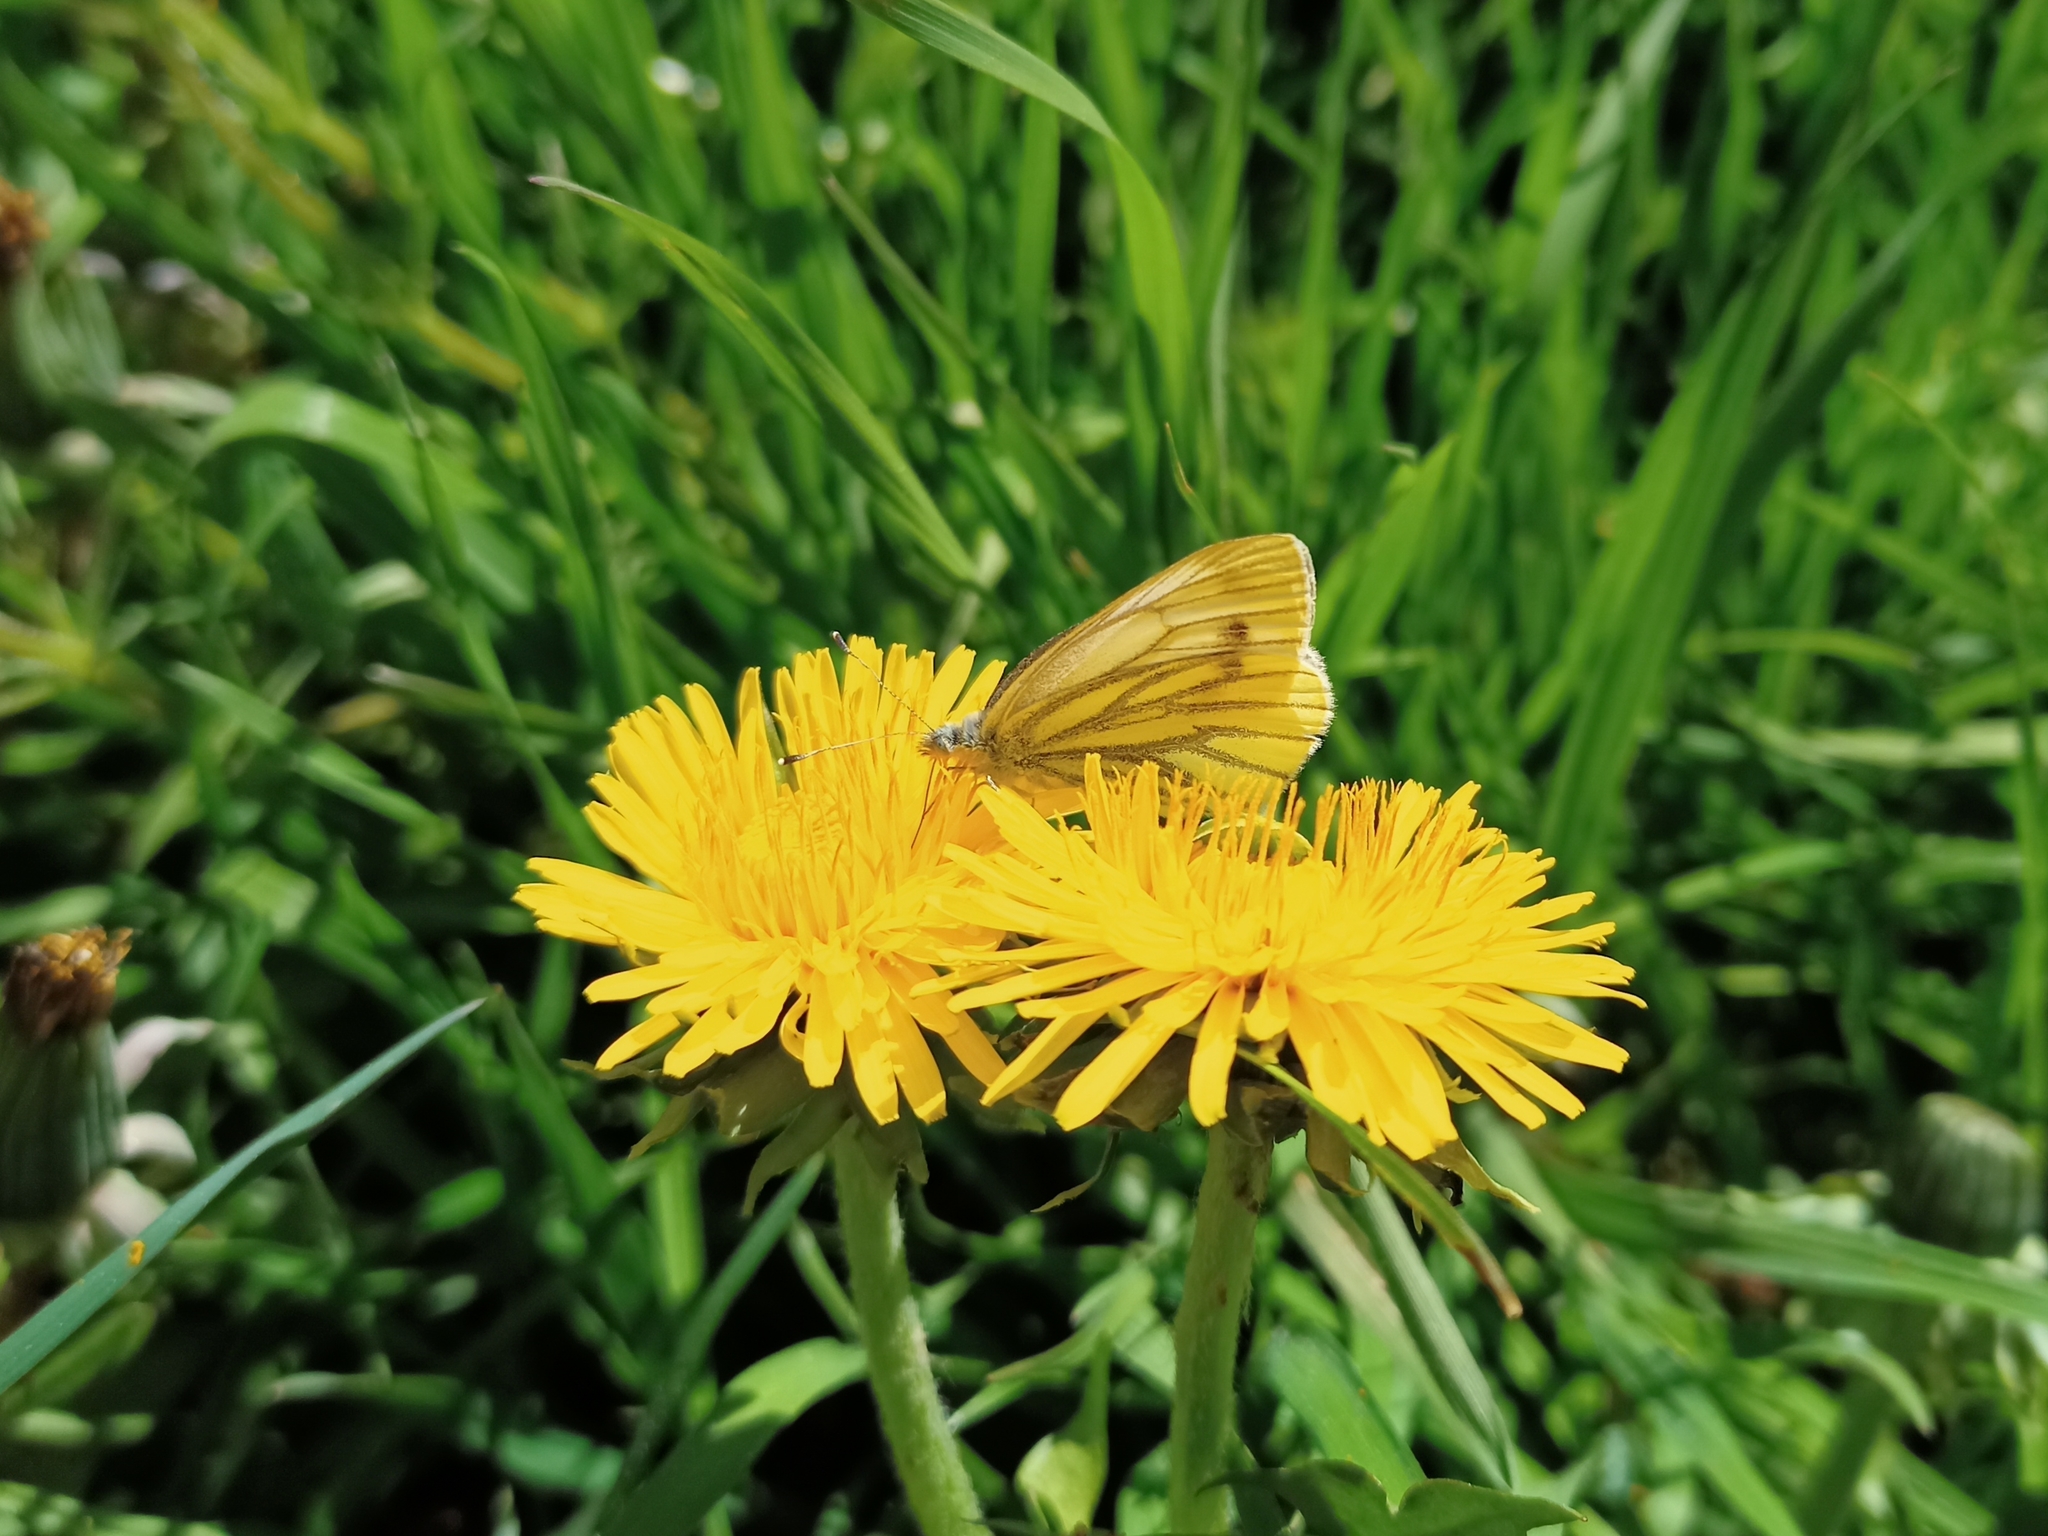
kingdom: Animalia
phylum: Arthropoda
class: Insecta
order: Lepidoptera
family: Pieridae
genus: Pieris
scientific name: Pieris napi
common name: Green-veined white
